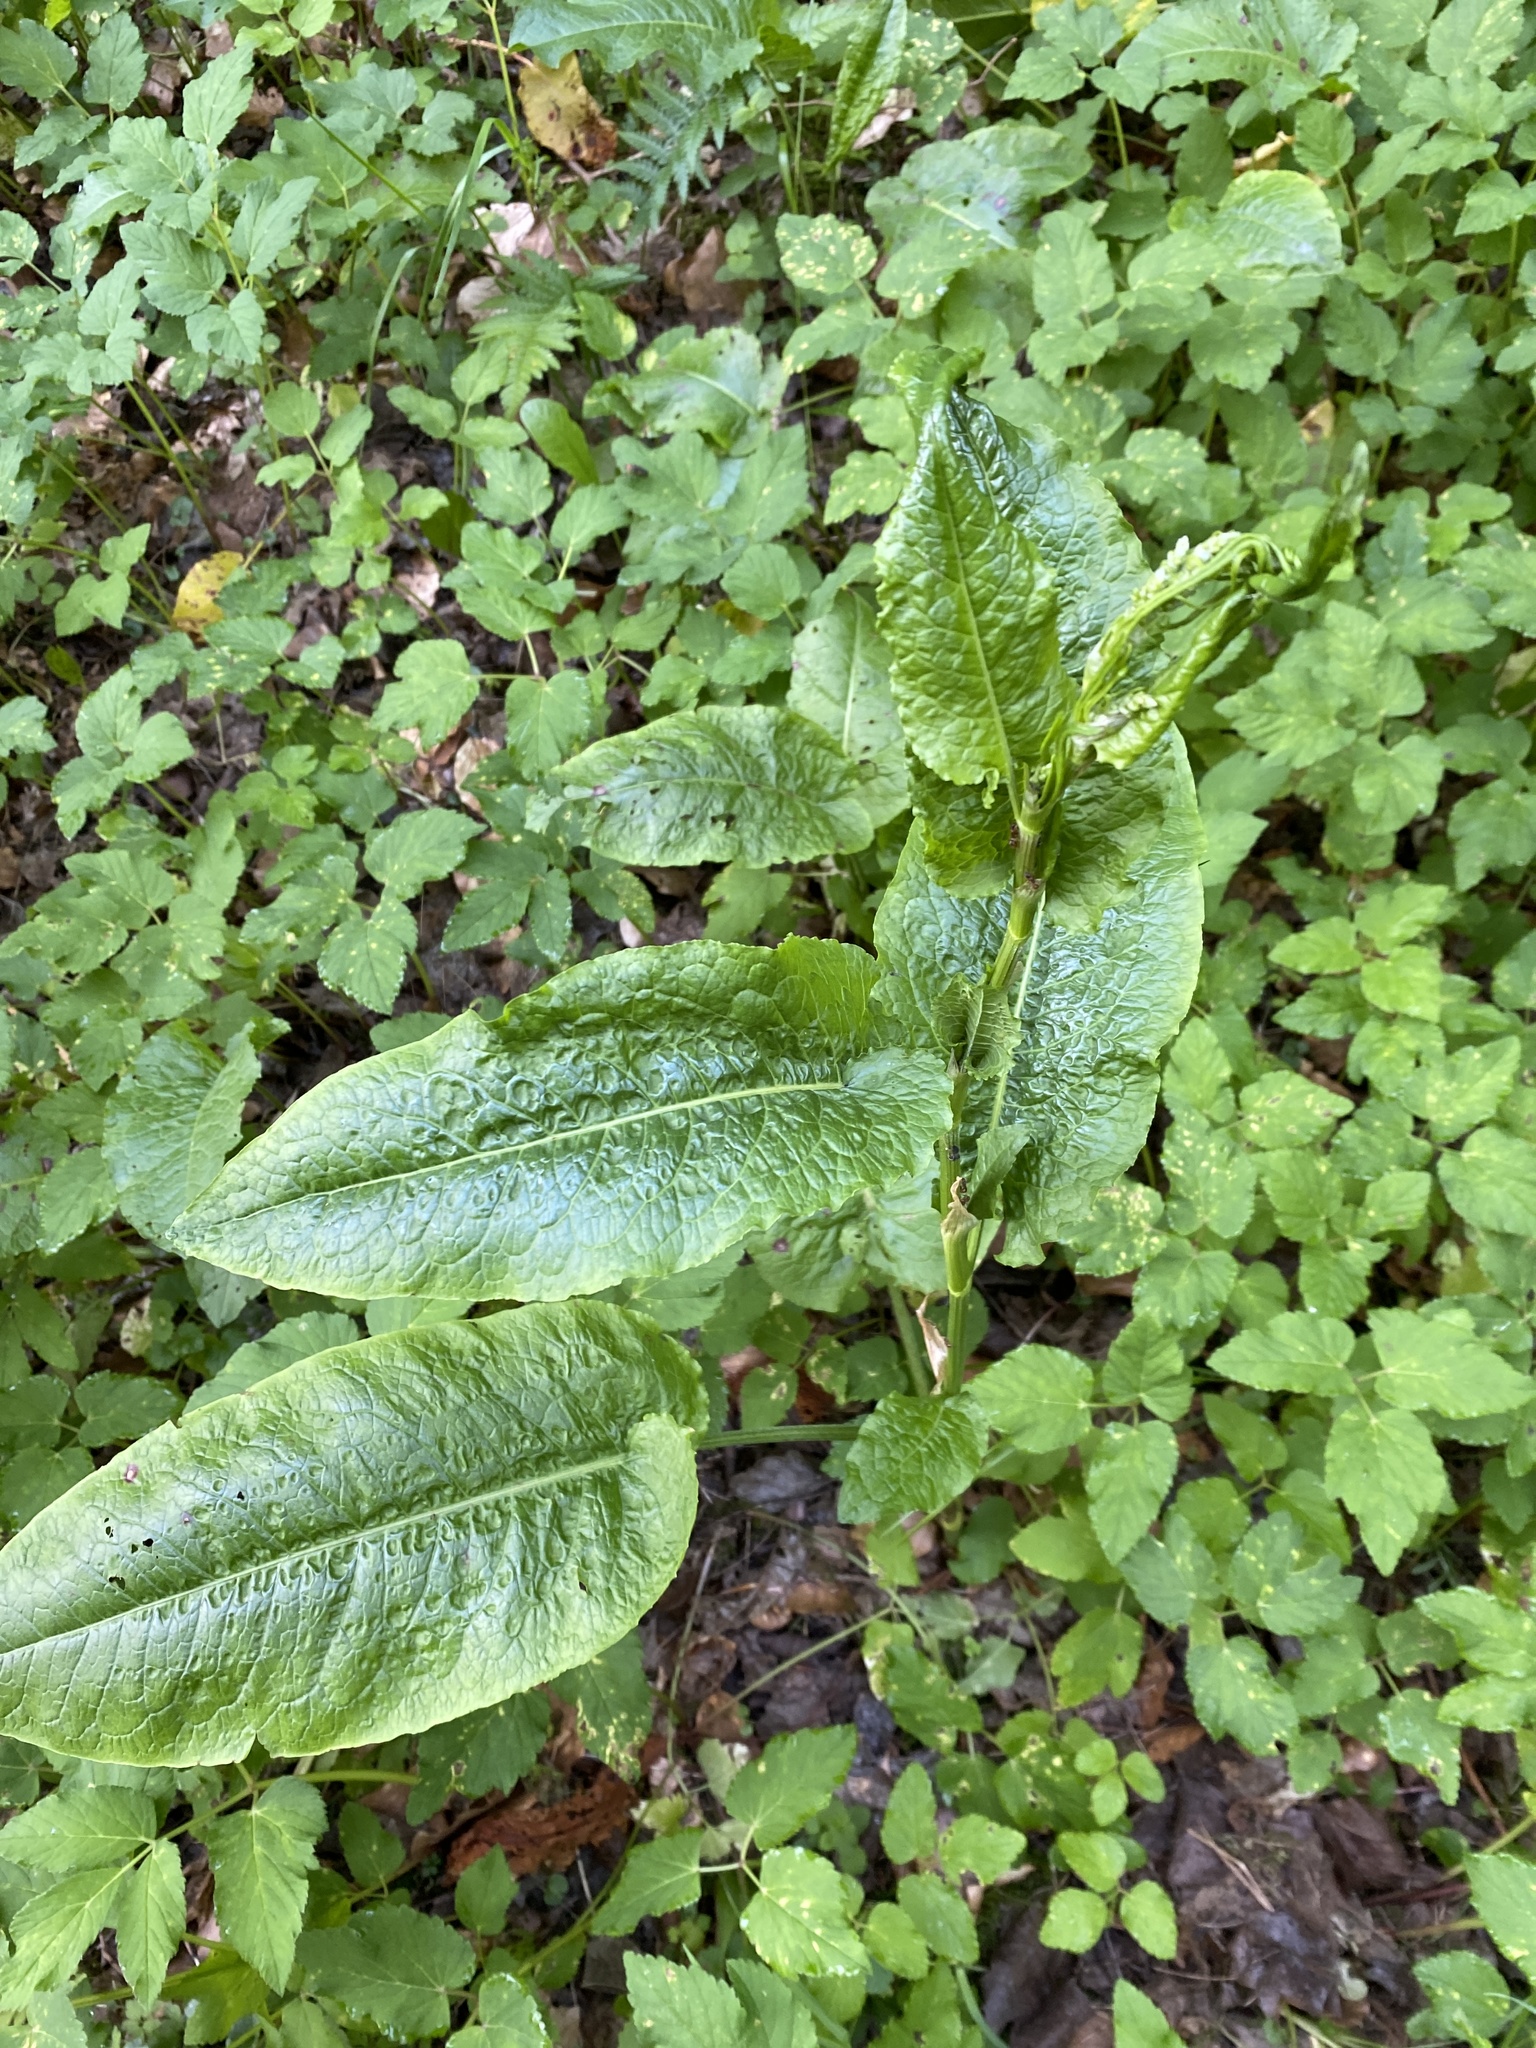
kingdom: Plantae
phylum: Tracheophyta
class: Magnoliopsida
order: Caryophyllales
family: Polygonaceae
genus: Rumex
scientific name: Rumex obtusifolius
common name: Bitter dock
